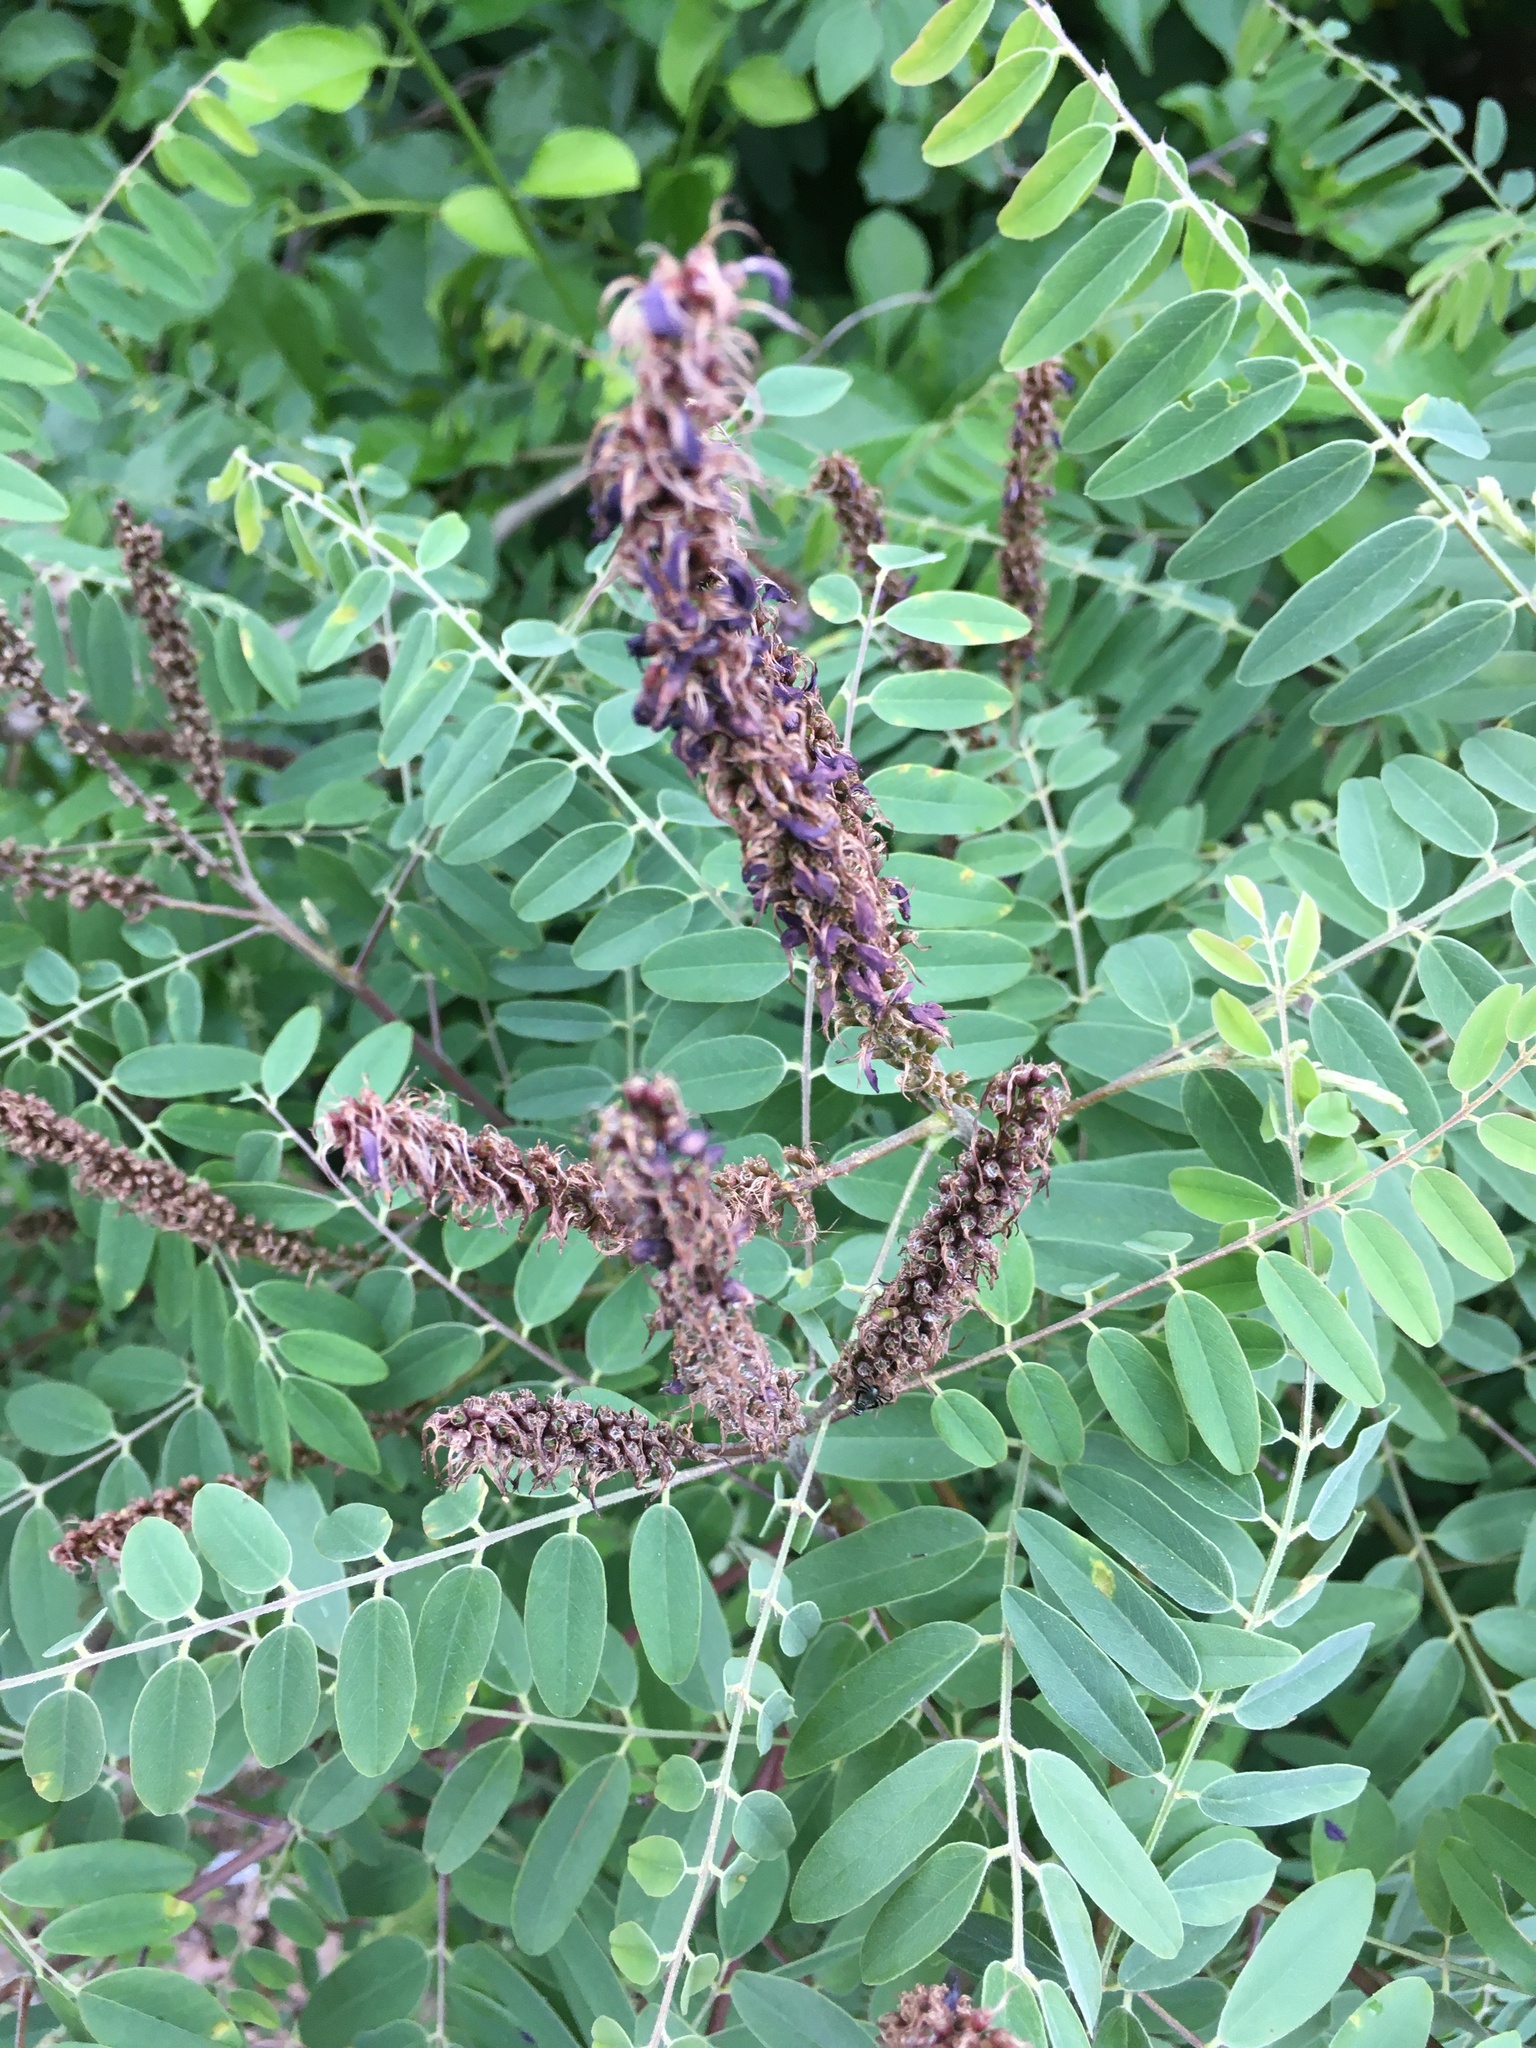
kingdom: Plantae
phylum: Tracheophyta
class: Magnoliopsida
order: Fabales
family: Fabaceae
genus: Amorpha
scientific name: Amorpha fruticosa
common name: False indigo
